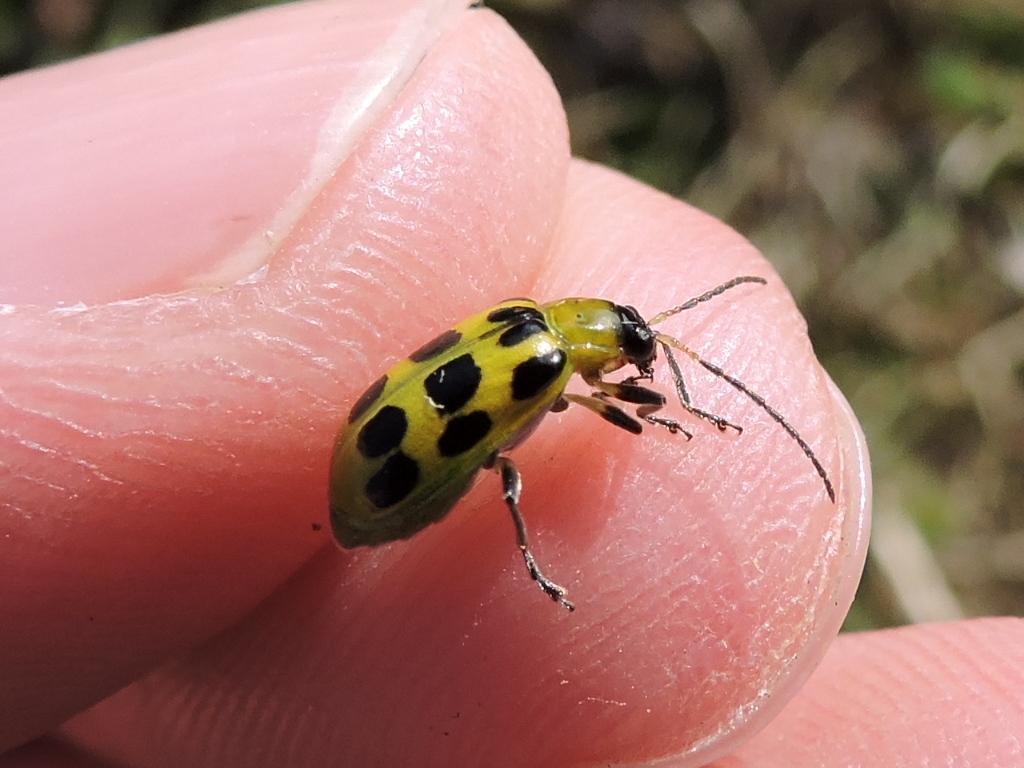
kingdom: Animalia
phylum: Arthropoda
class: Insecta
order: Coleoptera
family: Chrysomelidae
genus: Diabrotica
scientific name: Diabrotica undecimpunctata
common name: Spotted cucumber beetle
